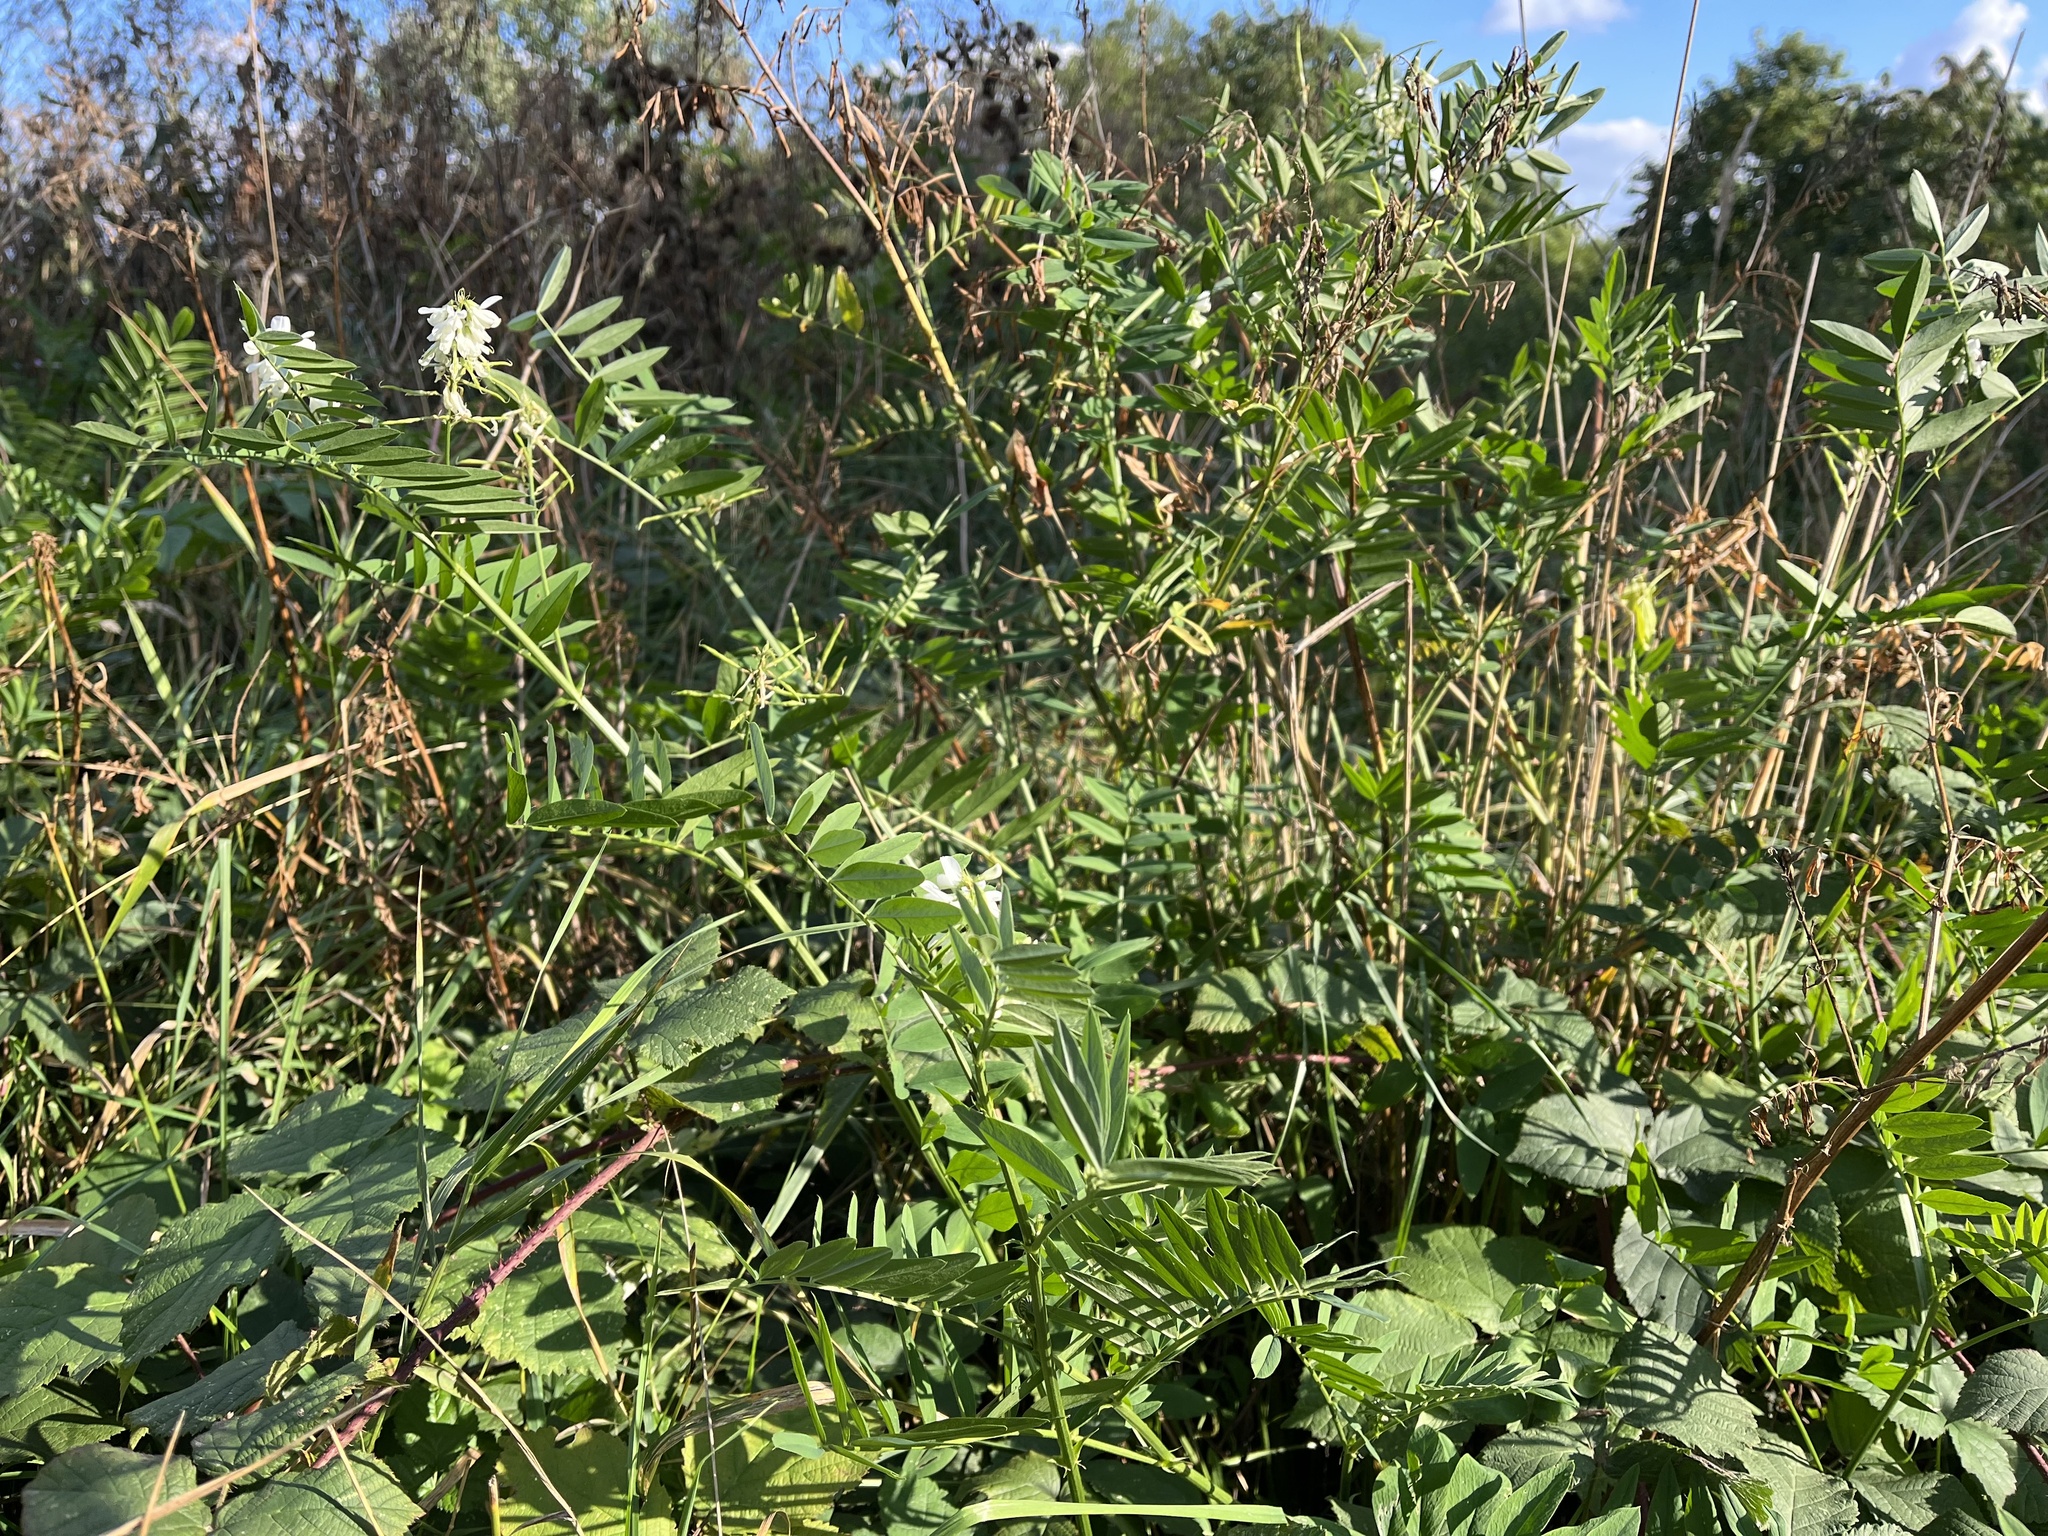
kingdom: Plantae
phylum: Tracheophyta
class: Magnoliopsida
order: Fabales
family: Fabaceae
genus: Galega
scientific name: Galega officinalis
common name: Goat's-rue
